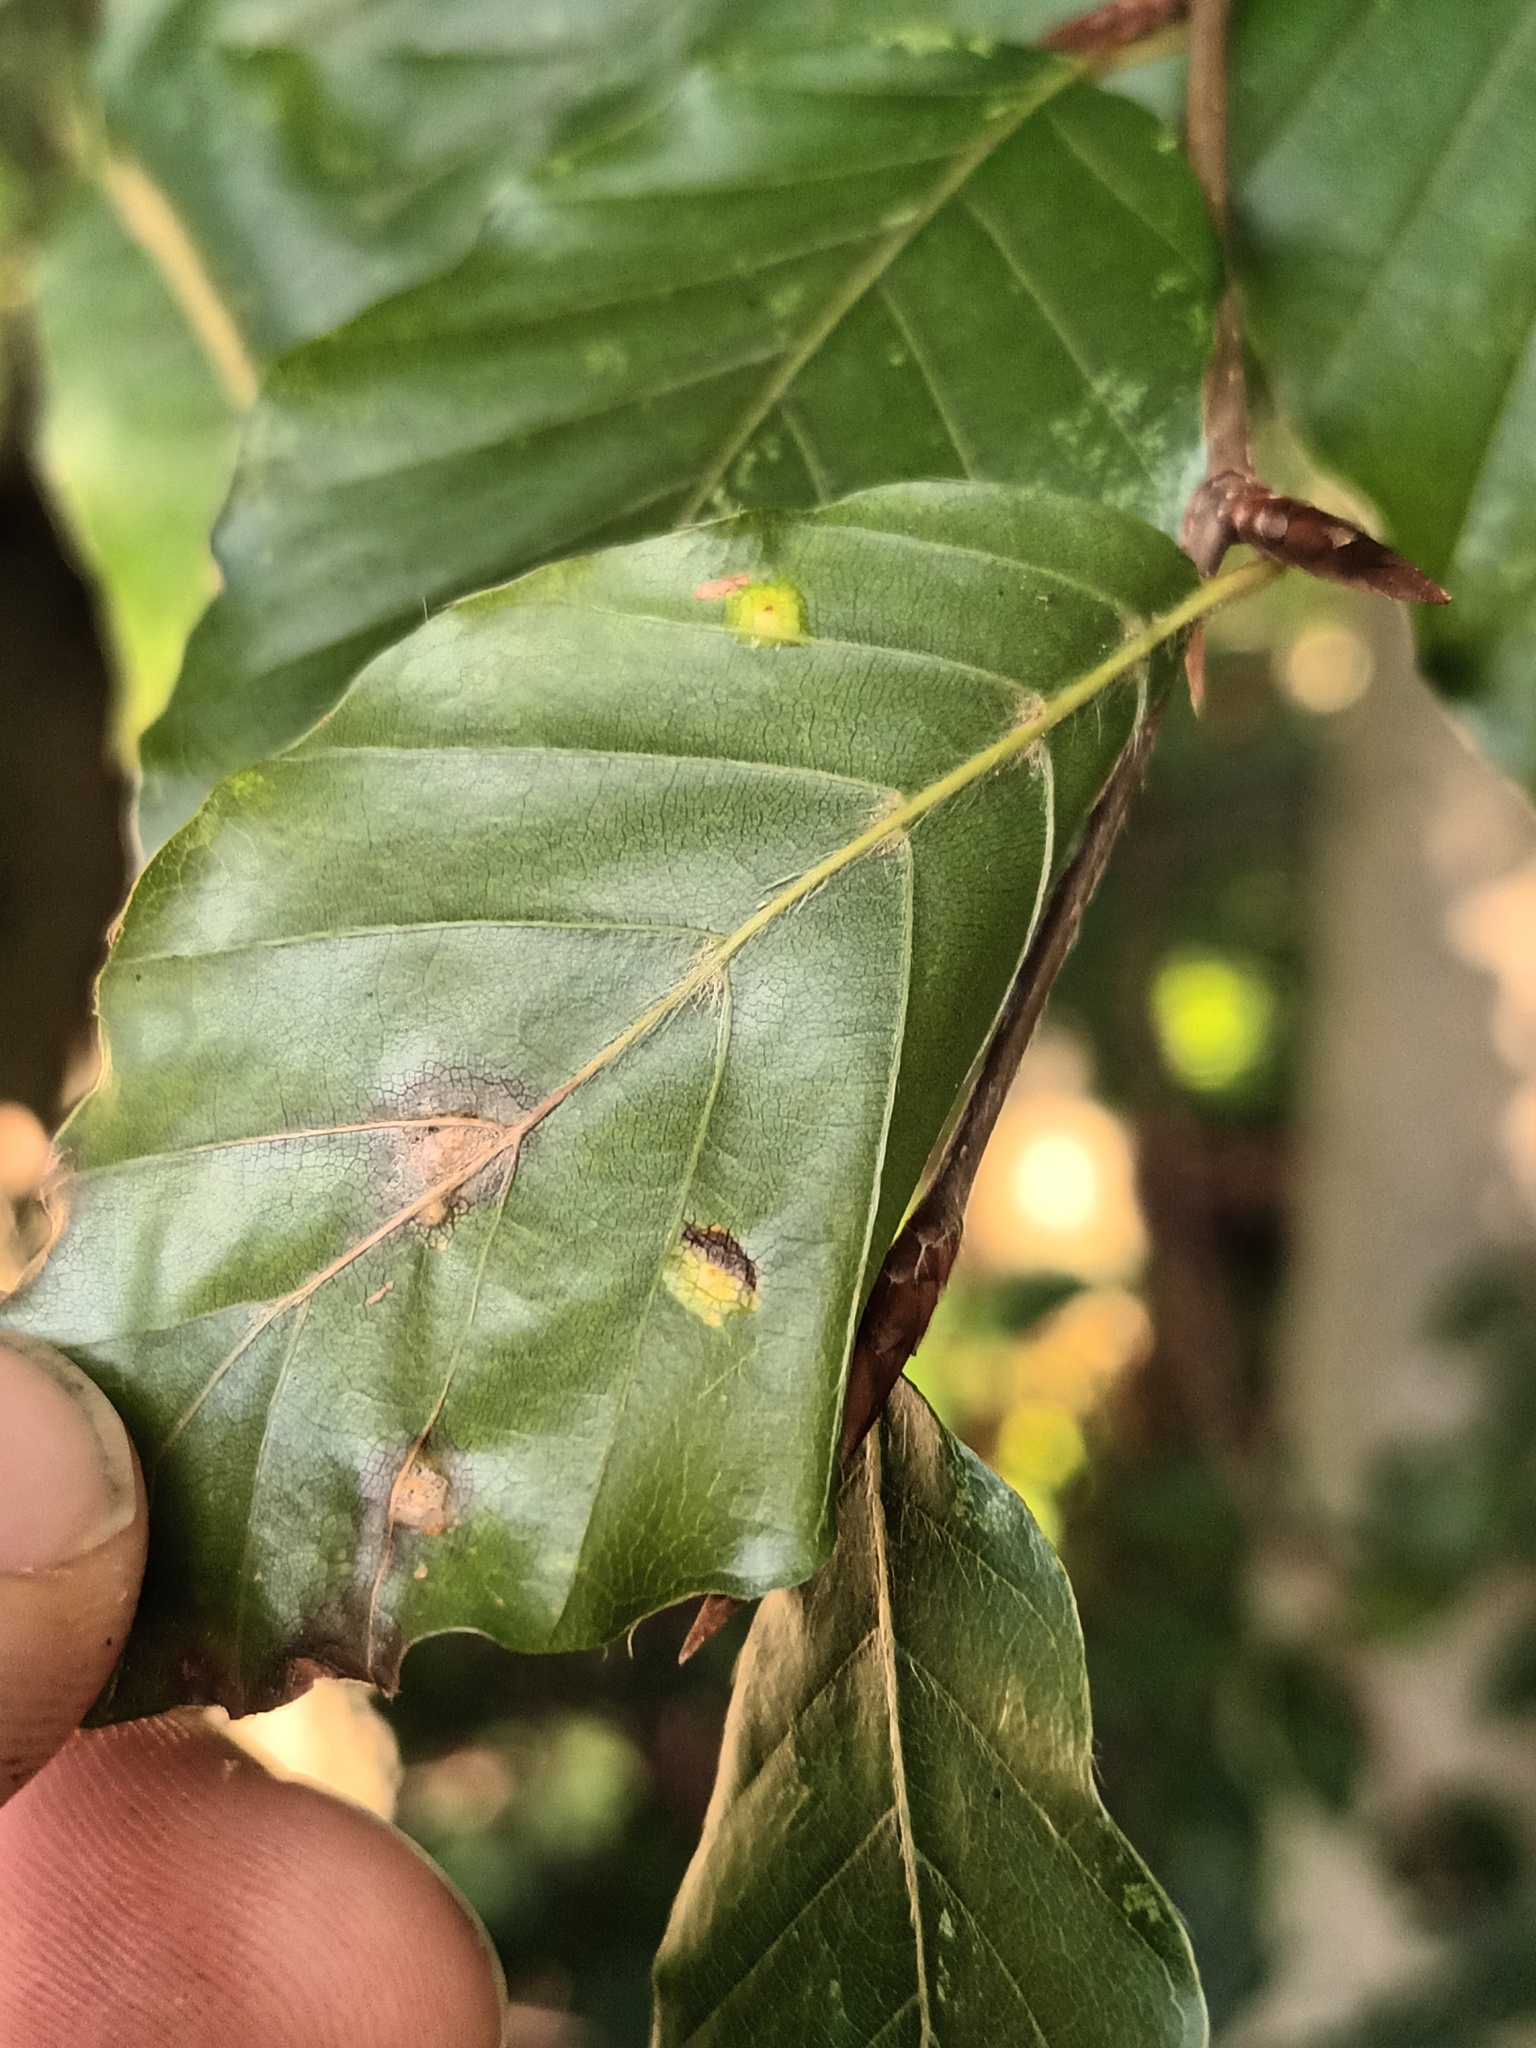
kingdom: Animalia
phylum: Arthropoda
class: Insecta
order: Diptera
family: Cecidomyiidae
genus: Hartigiola
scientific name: Hartigiola annulipes
